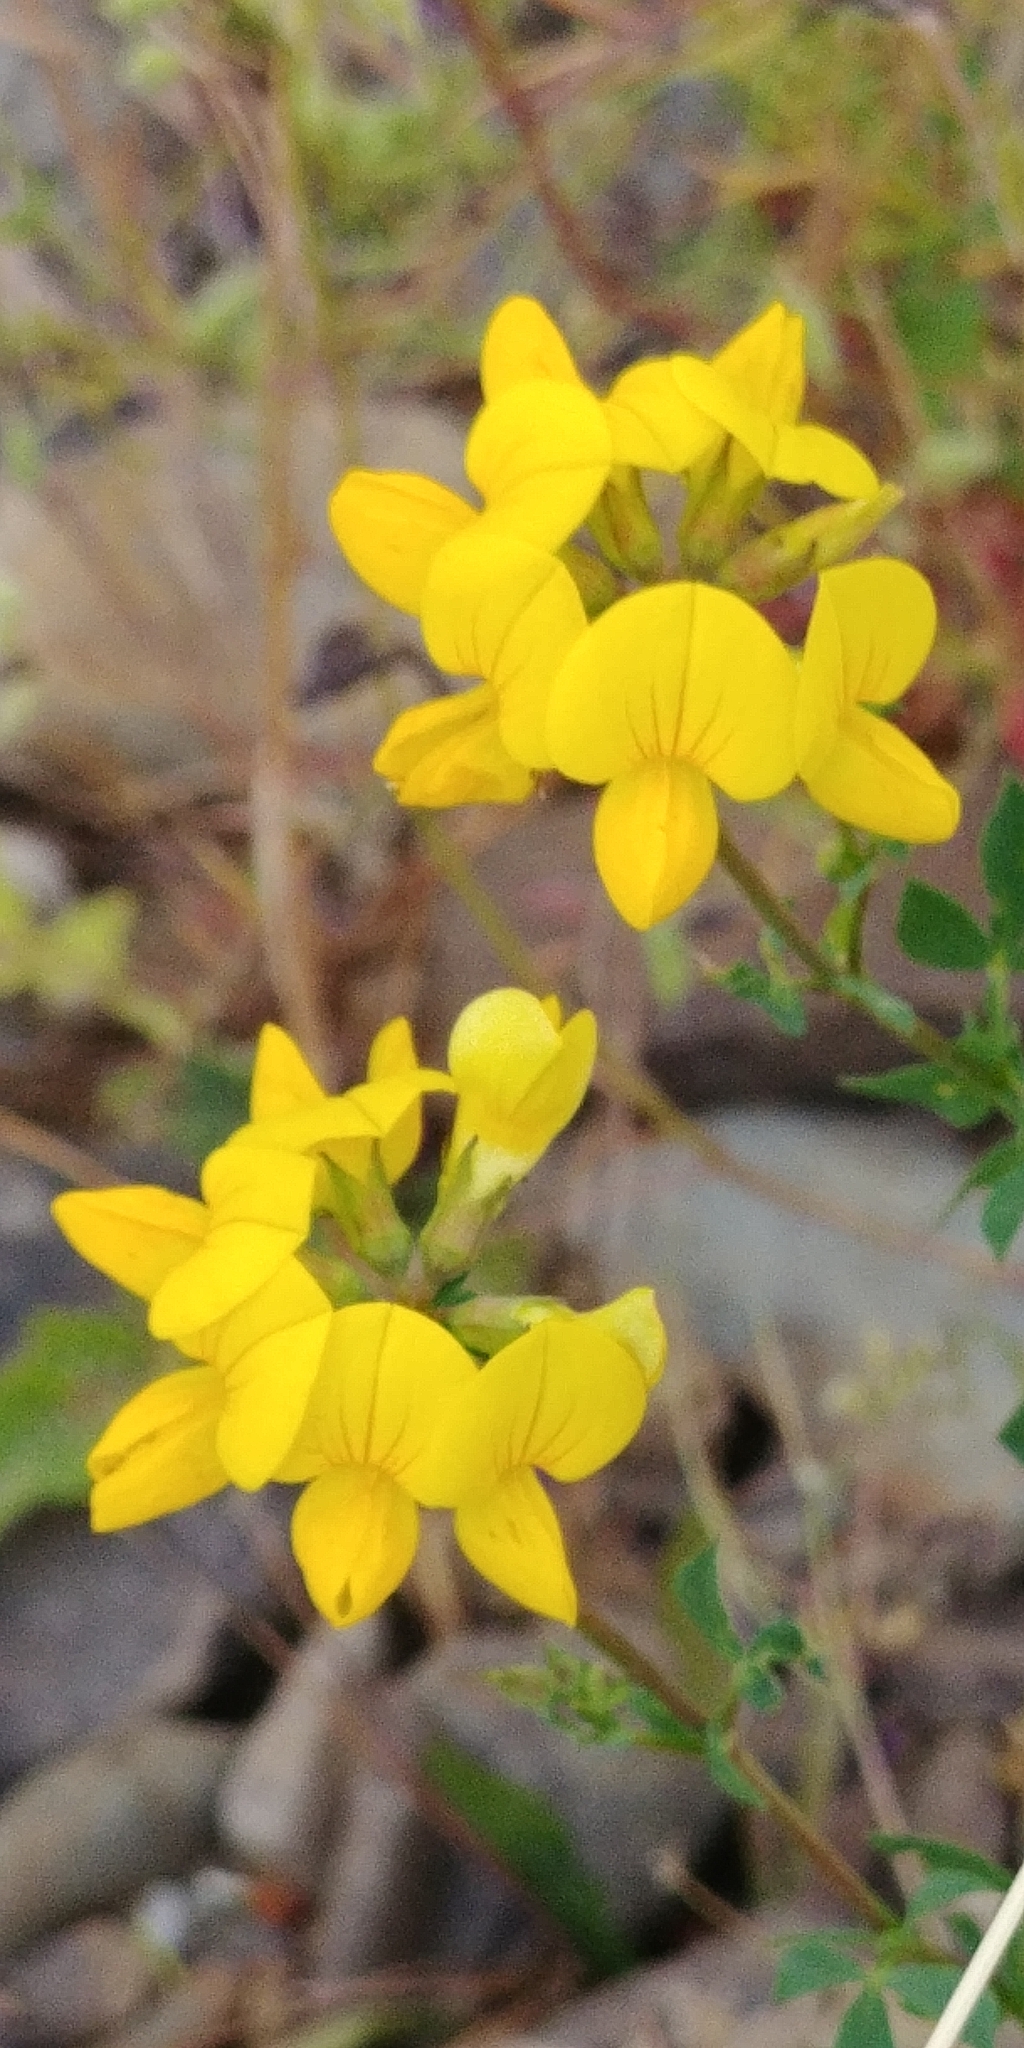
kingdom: Plantae
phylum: Tracheophyta
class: Magnoliopsida
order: Fabales
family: Fabaceae
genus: Lotus
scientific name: Lotus corniculatus
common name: Common bird's-foot-trefoil
